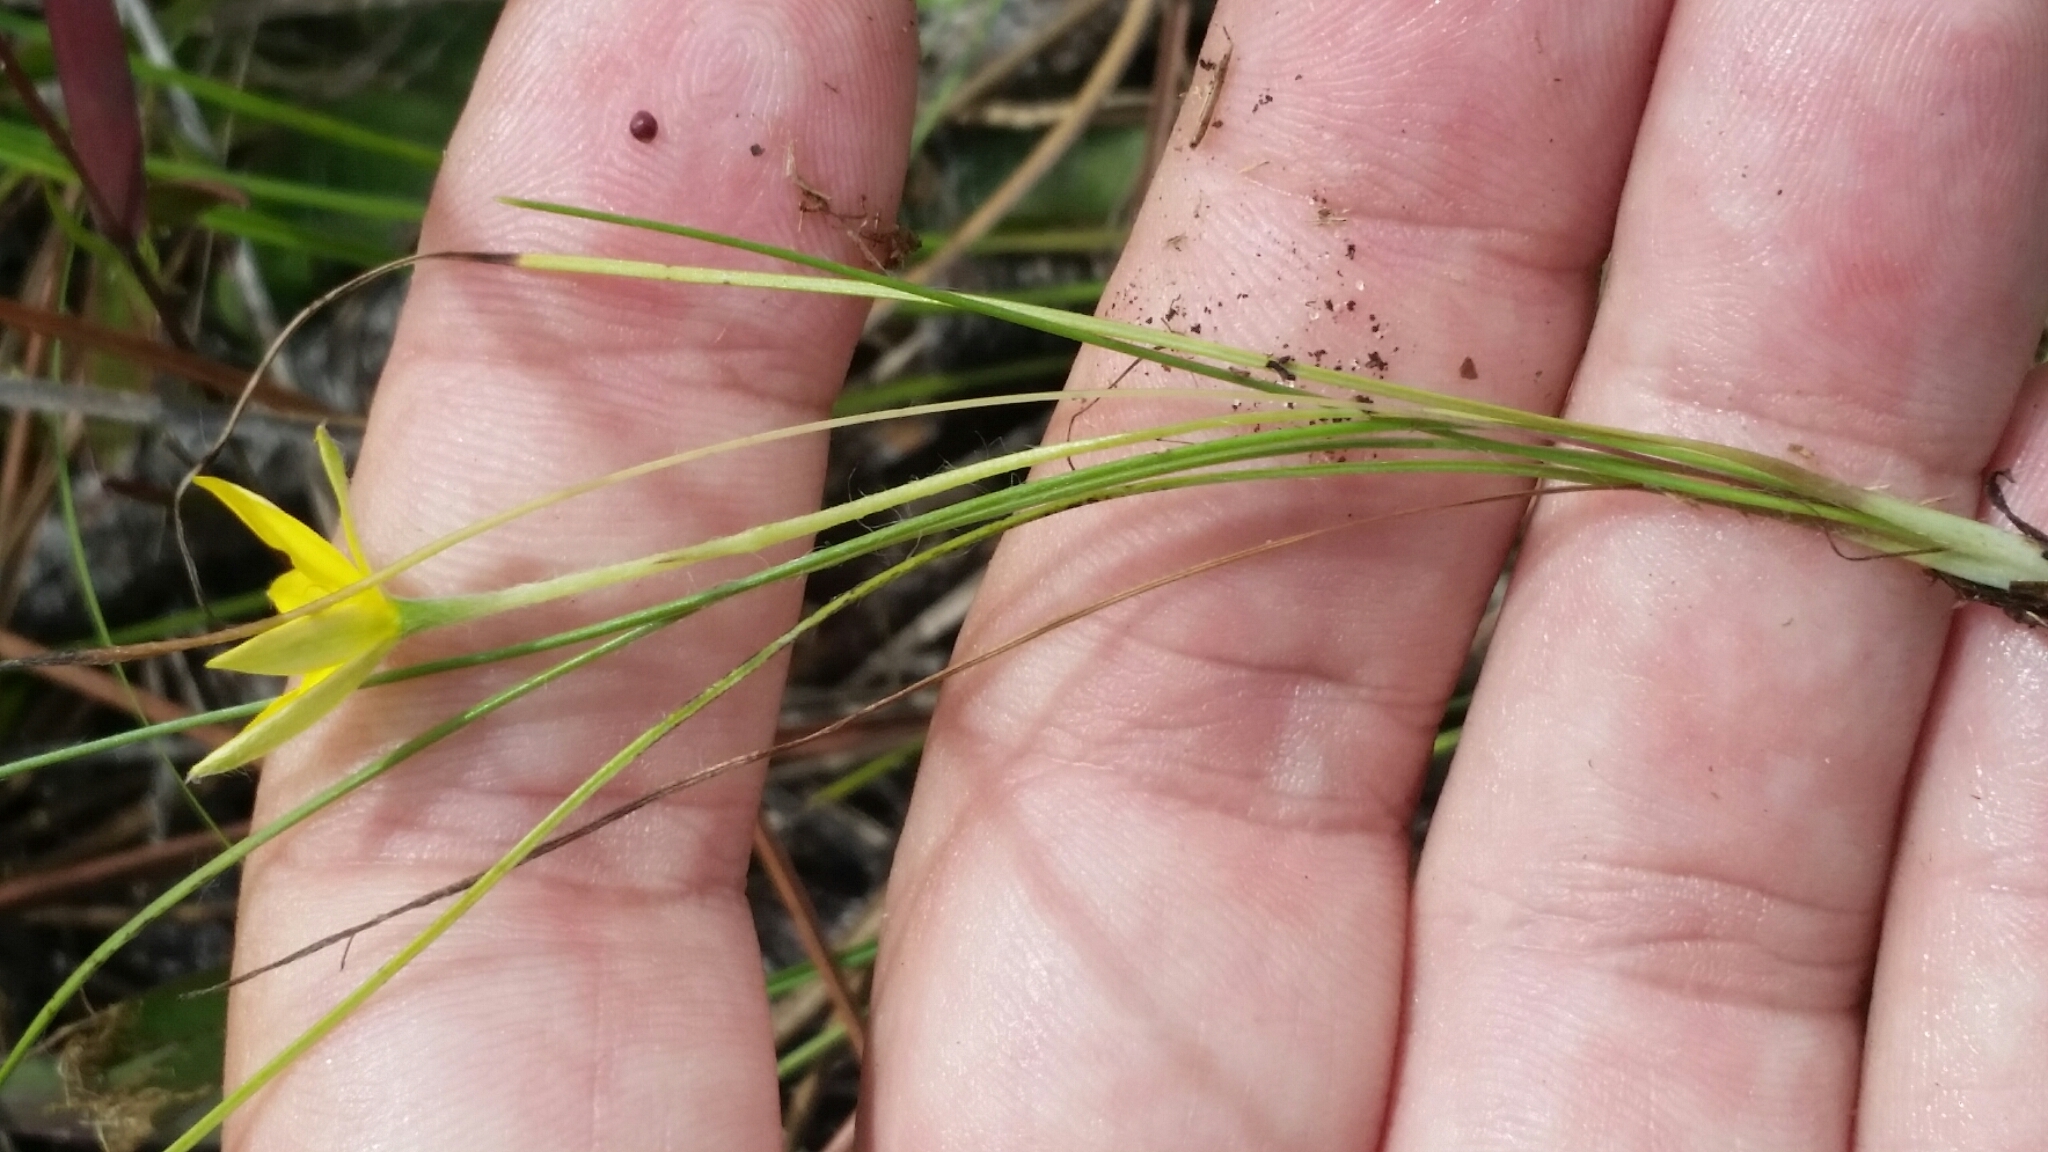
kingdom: Plantae
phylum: Tracheophyta
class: Liliopsida
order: Asparagales
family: Hypoxidaceae
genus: Hypoxis
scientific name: Hypoxis juncea
